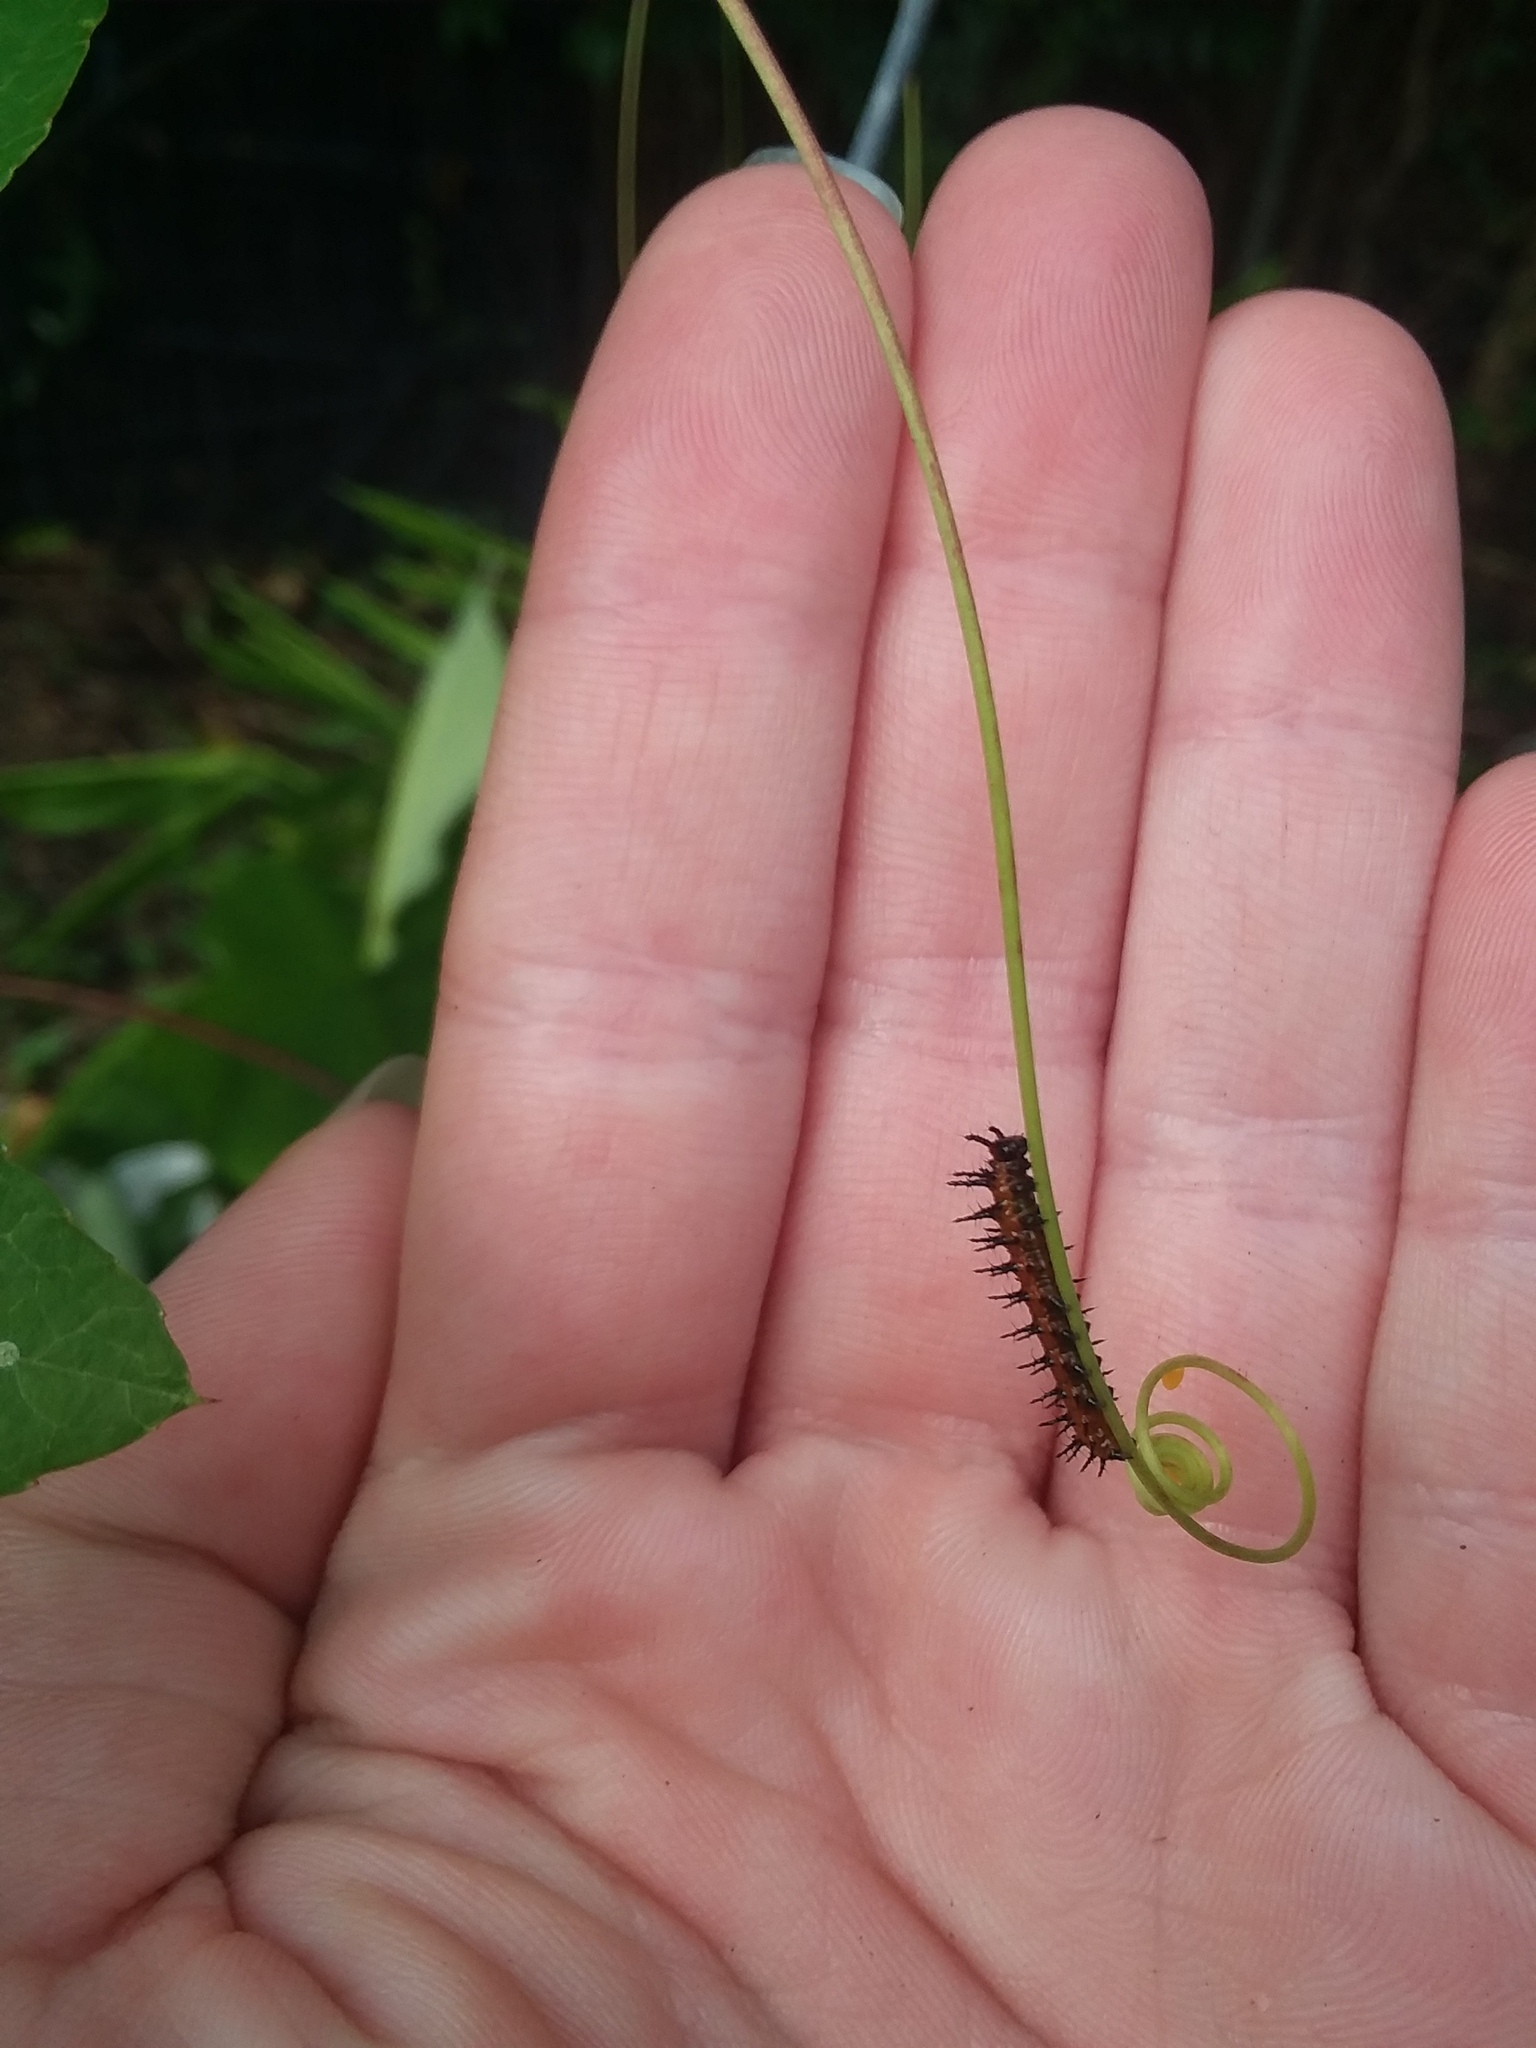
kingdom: Animalia
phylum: Arthropoda
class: Insecta
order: Lepidoptera
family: Nymphalidae
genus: Dione
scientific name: Dione vanillae
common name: Gulf fritillary
